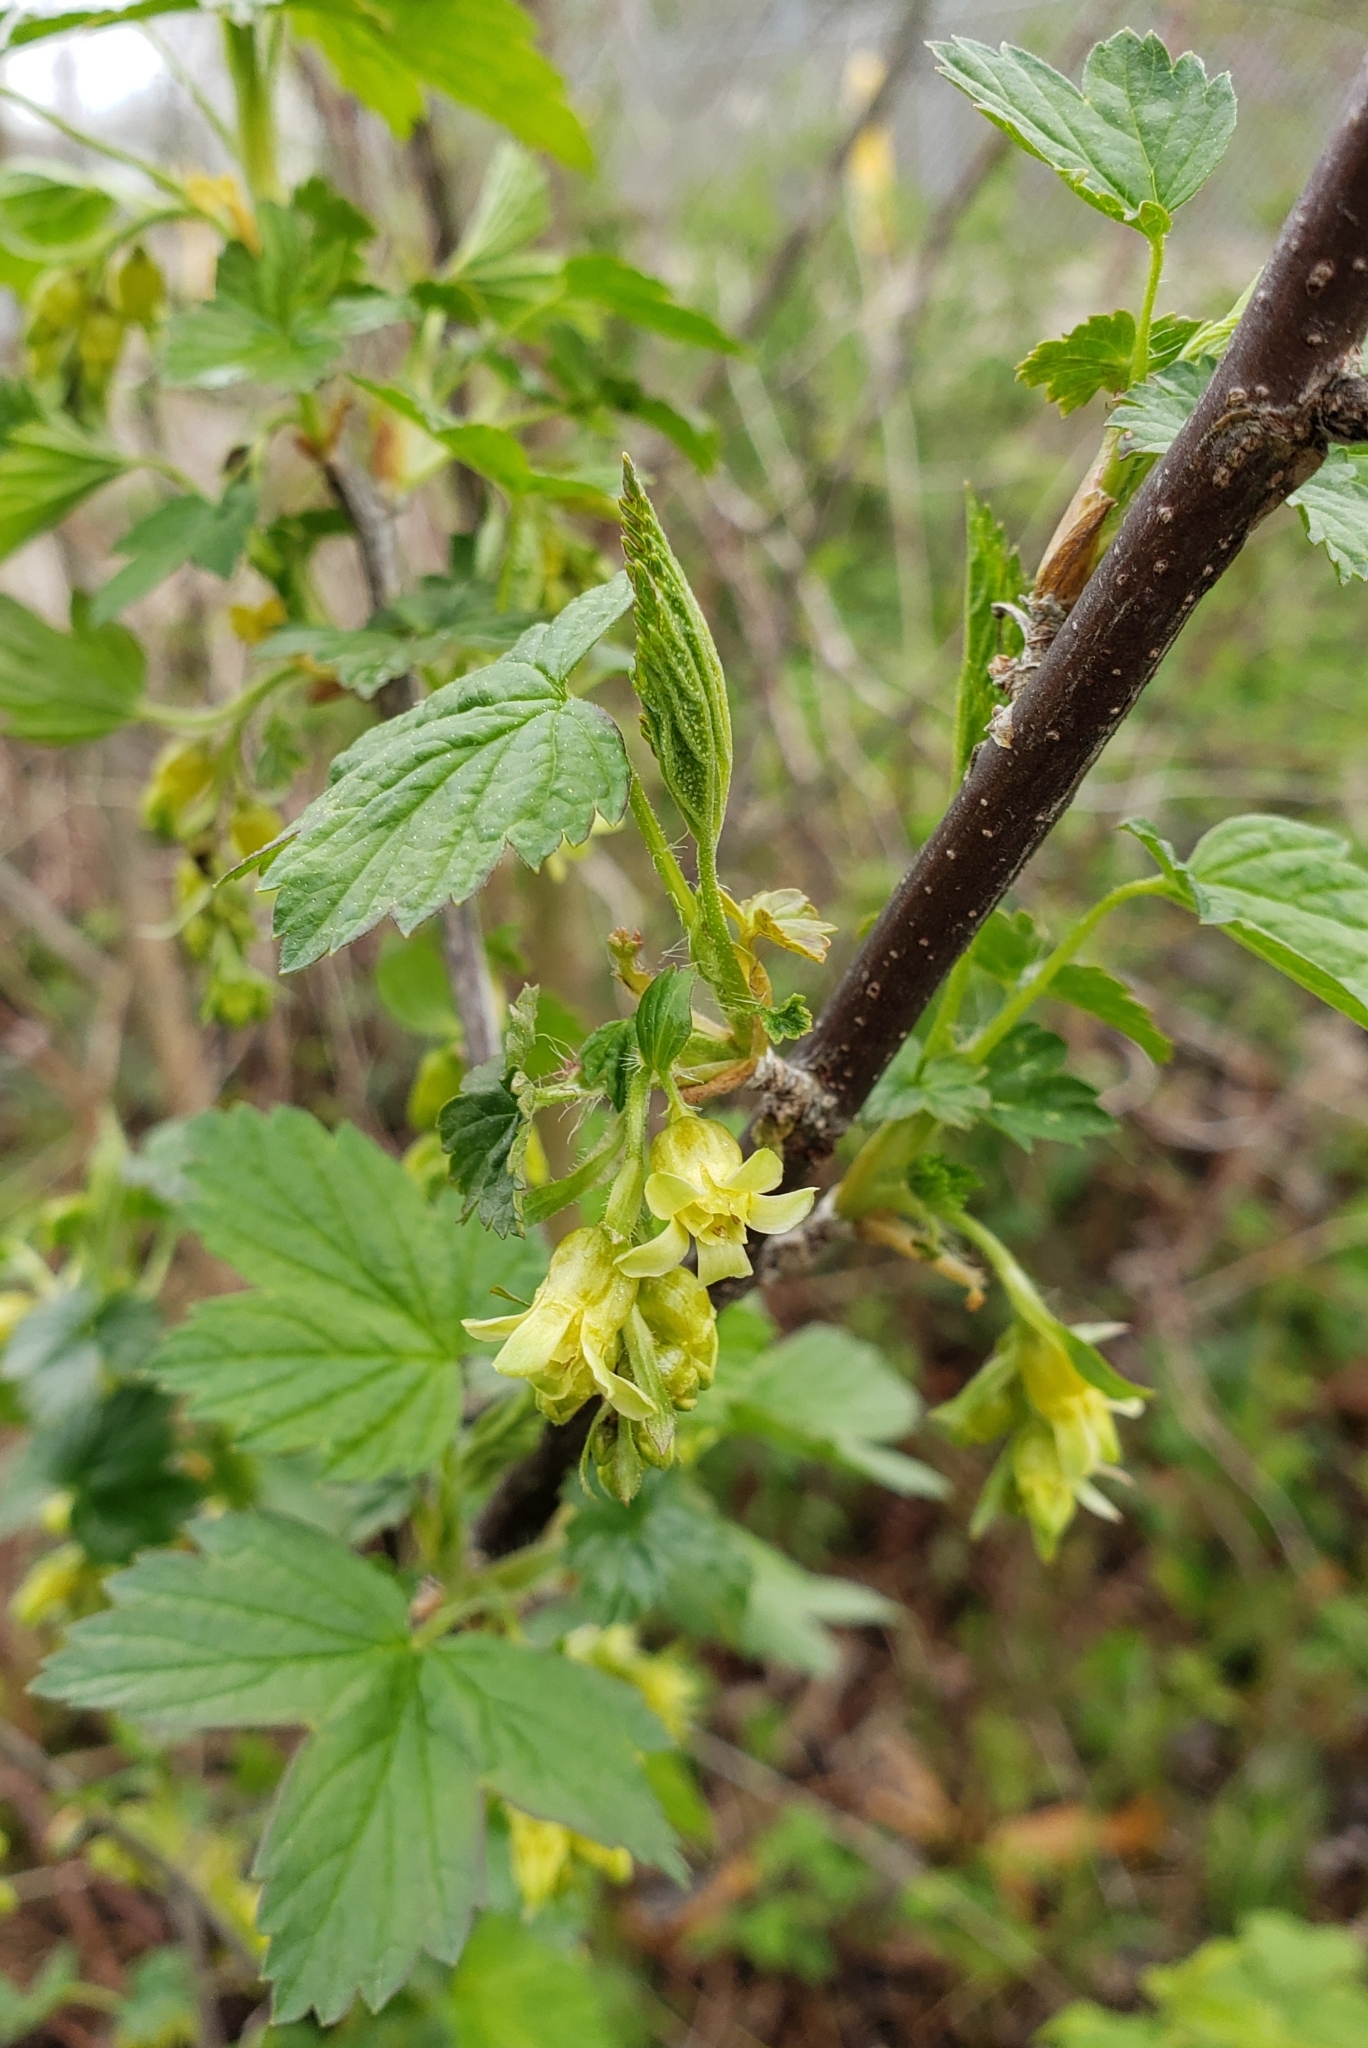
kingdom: Plantae
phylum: Tracheophyta
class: Magnoliopsida
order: Saxifragales
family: Grossulariaceae
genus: Ribes
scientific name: Ribes americanum
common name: American black currant
